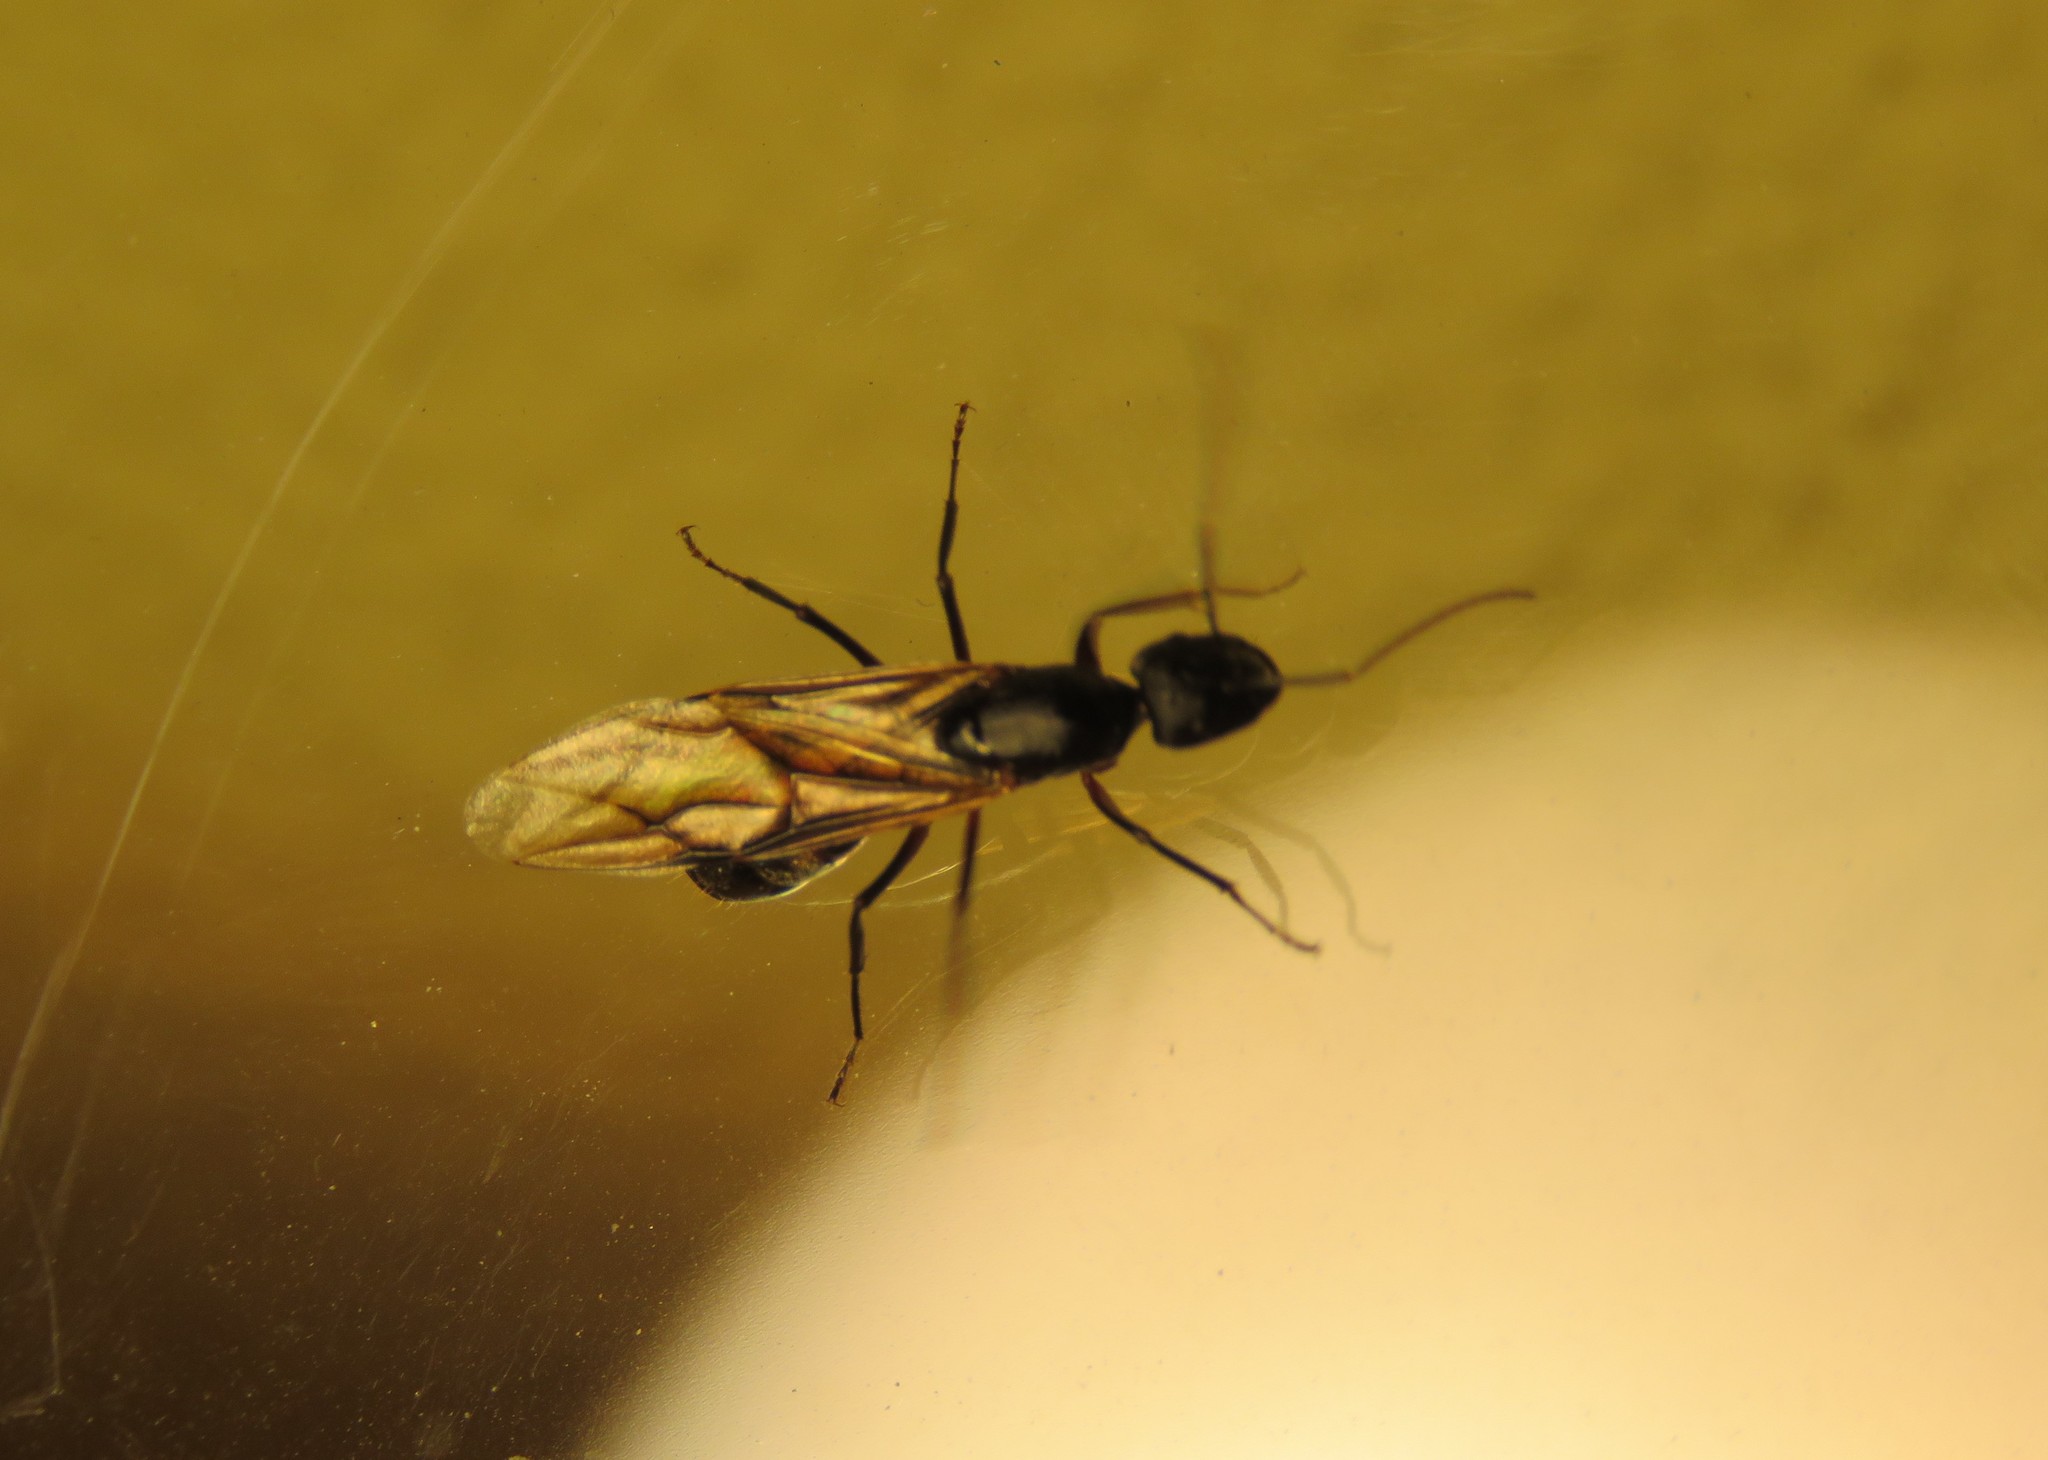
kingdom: Animalia
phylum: Arthropoda
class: Insecta
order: Hymenoptera
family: Formicidae
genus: Camponotus
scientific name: Camponotus cruentatus
